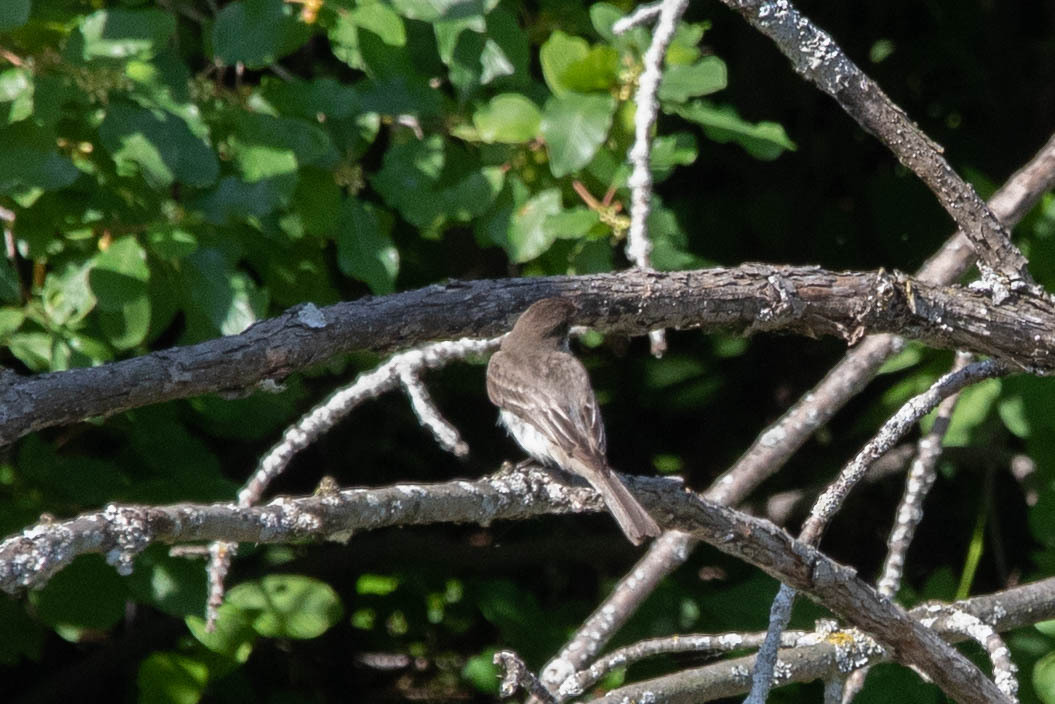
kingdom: Animalia
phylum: Chordata
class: Aves
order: Passeriformes
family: Tyrannidae
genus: Sayornis
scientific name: Sayornis phoebe
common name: Eastern phoebe
